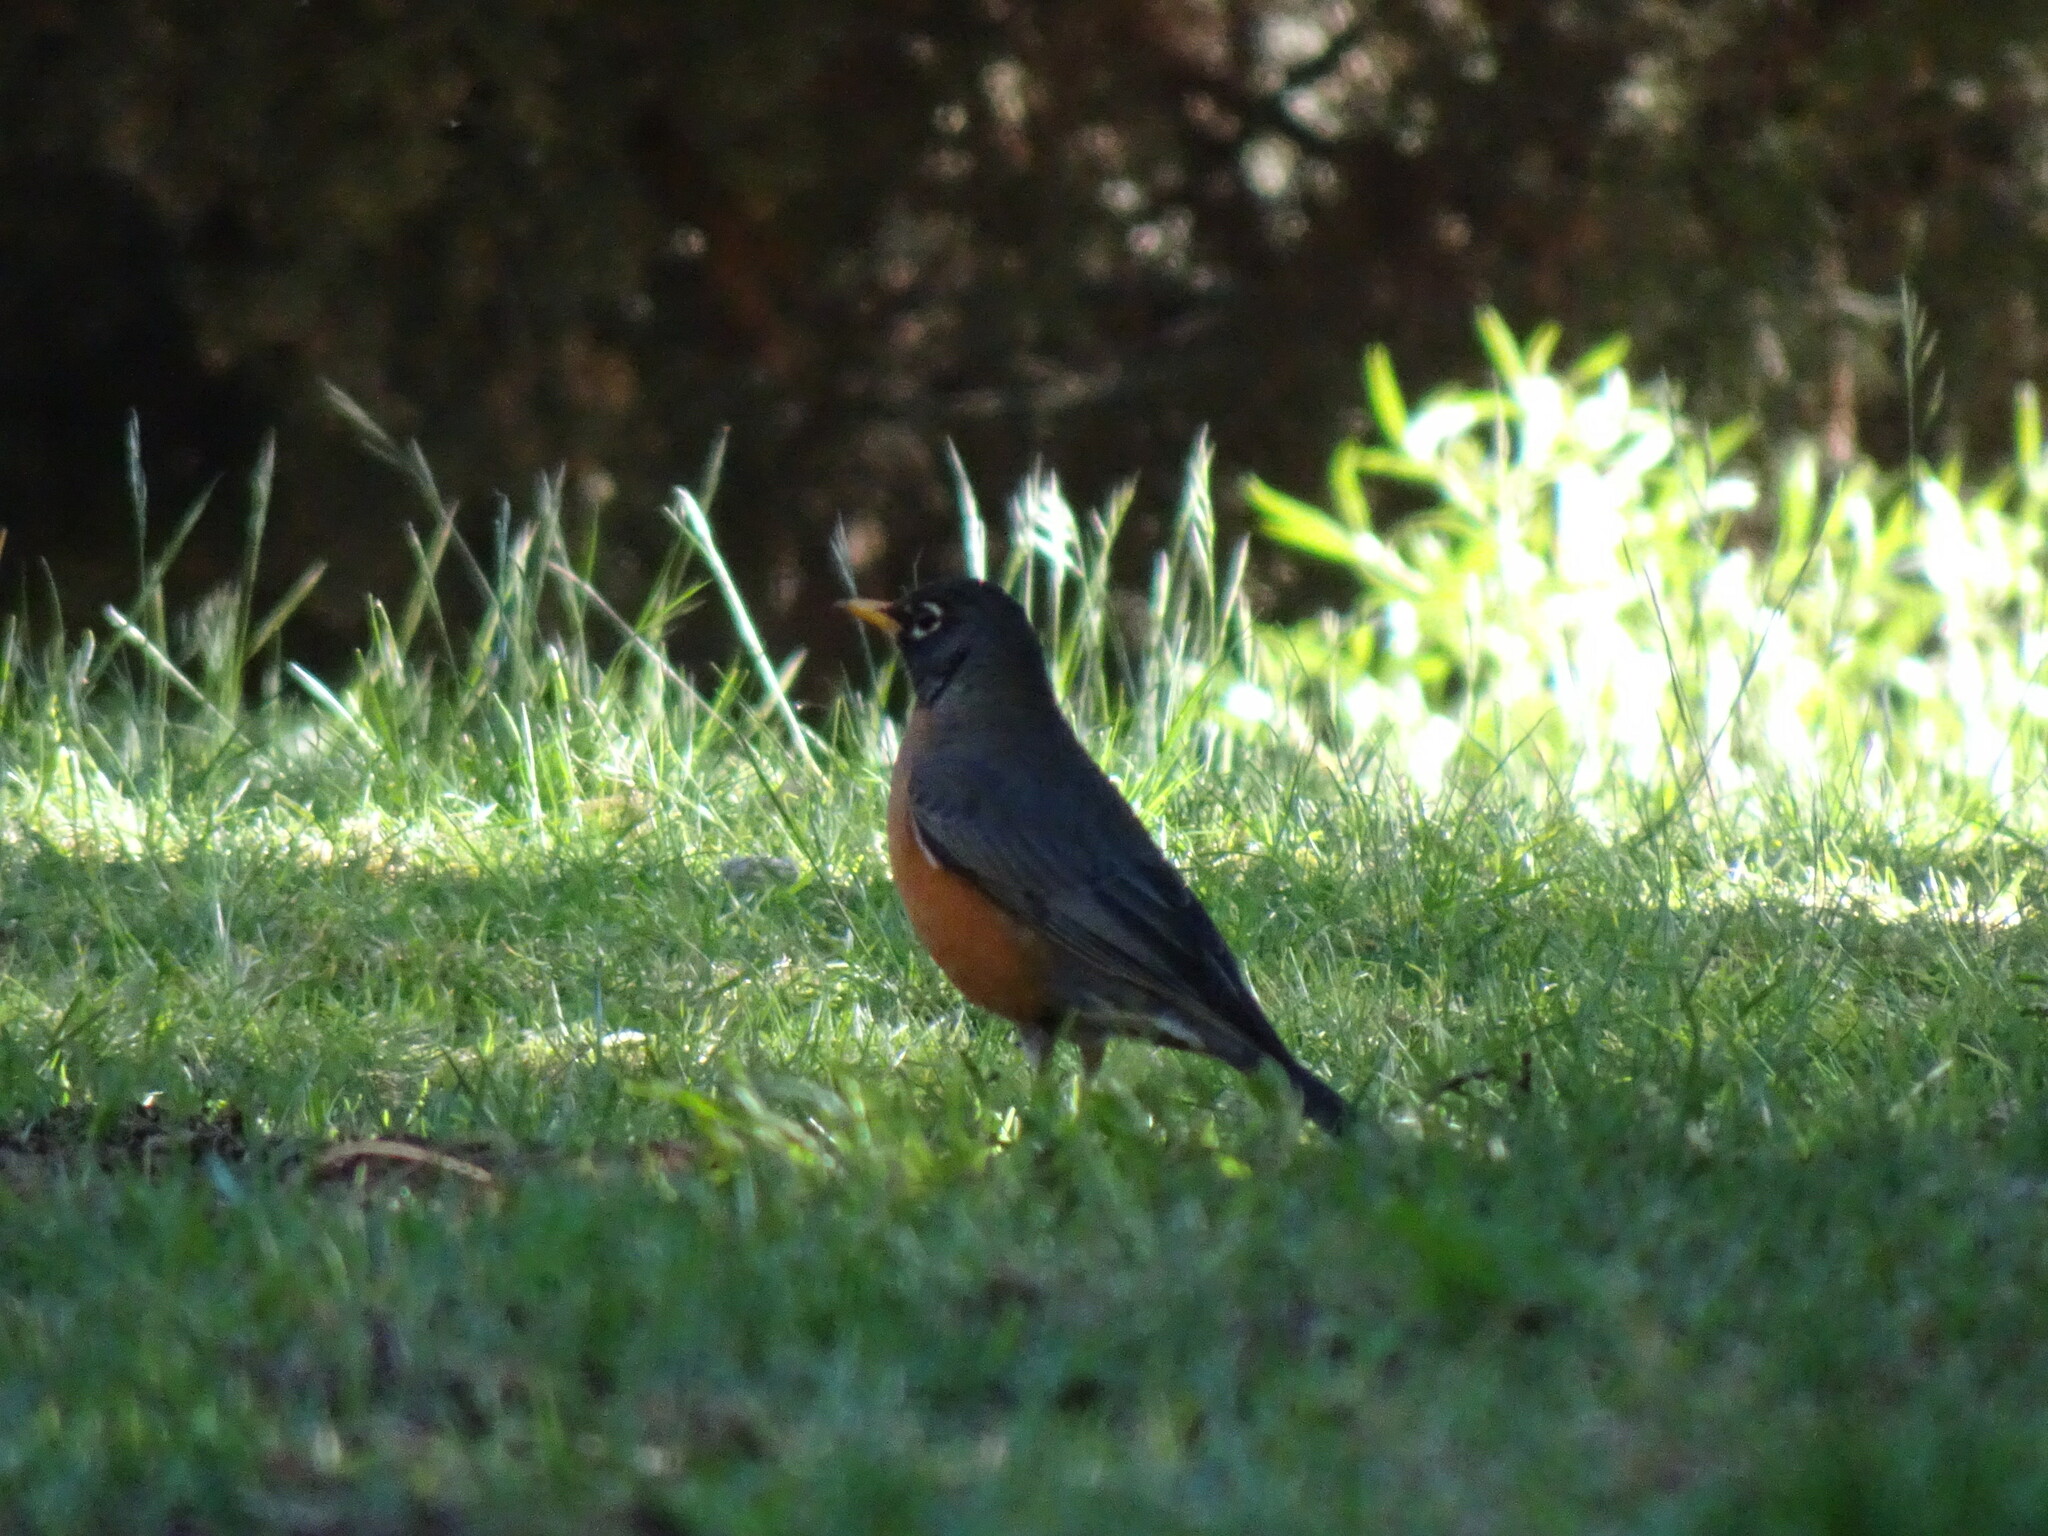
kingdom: Animalia
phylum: Chordata
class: Aves
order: Passeriformes
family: Turdidae
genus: Turdus
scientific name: Turdus migratorius
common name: American robin
